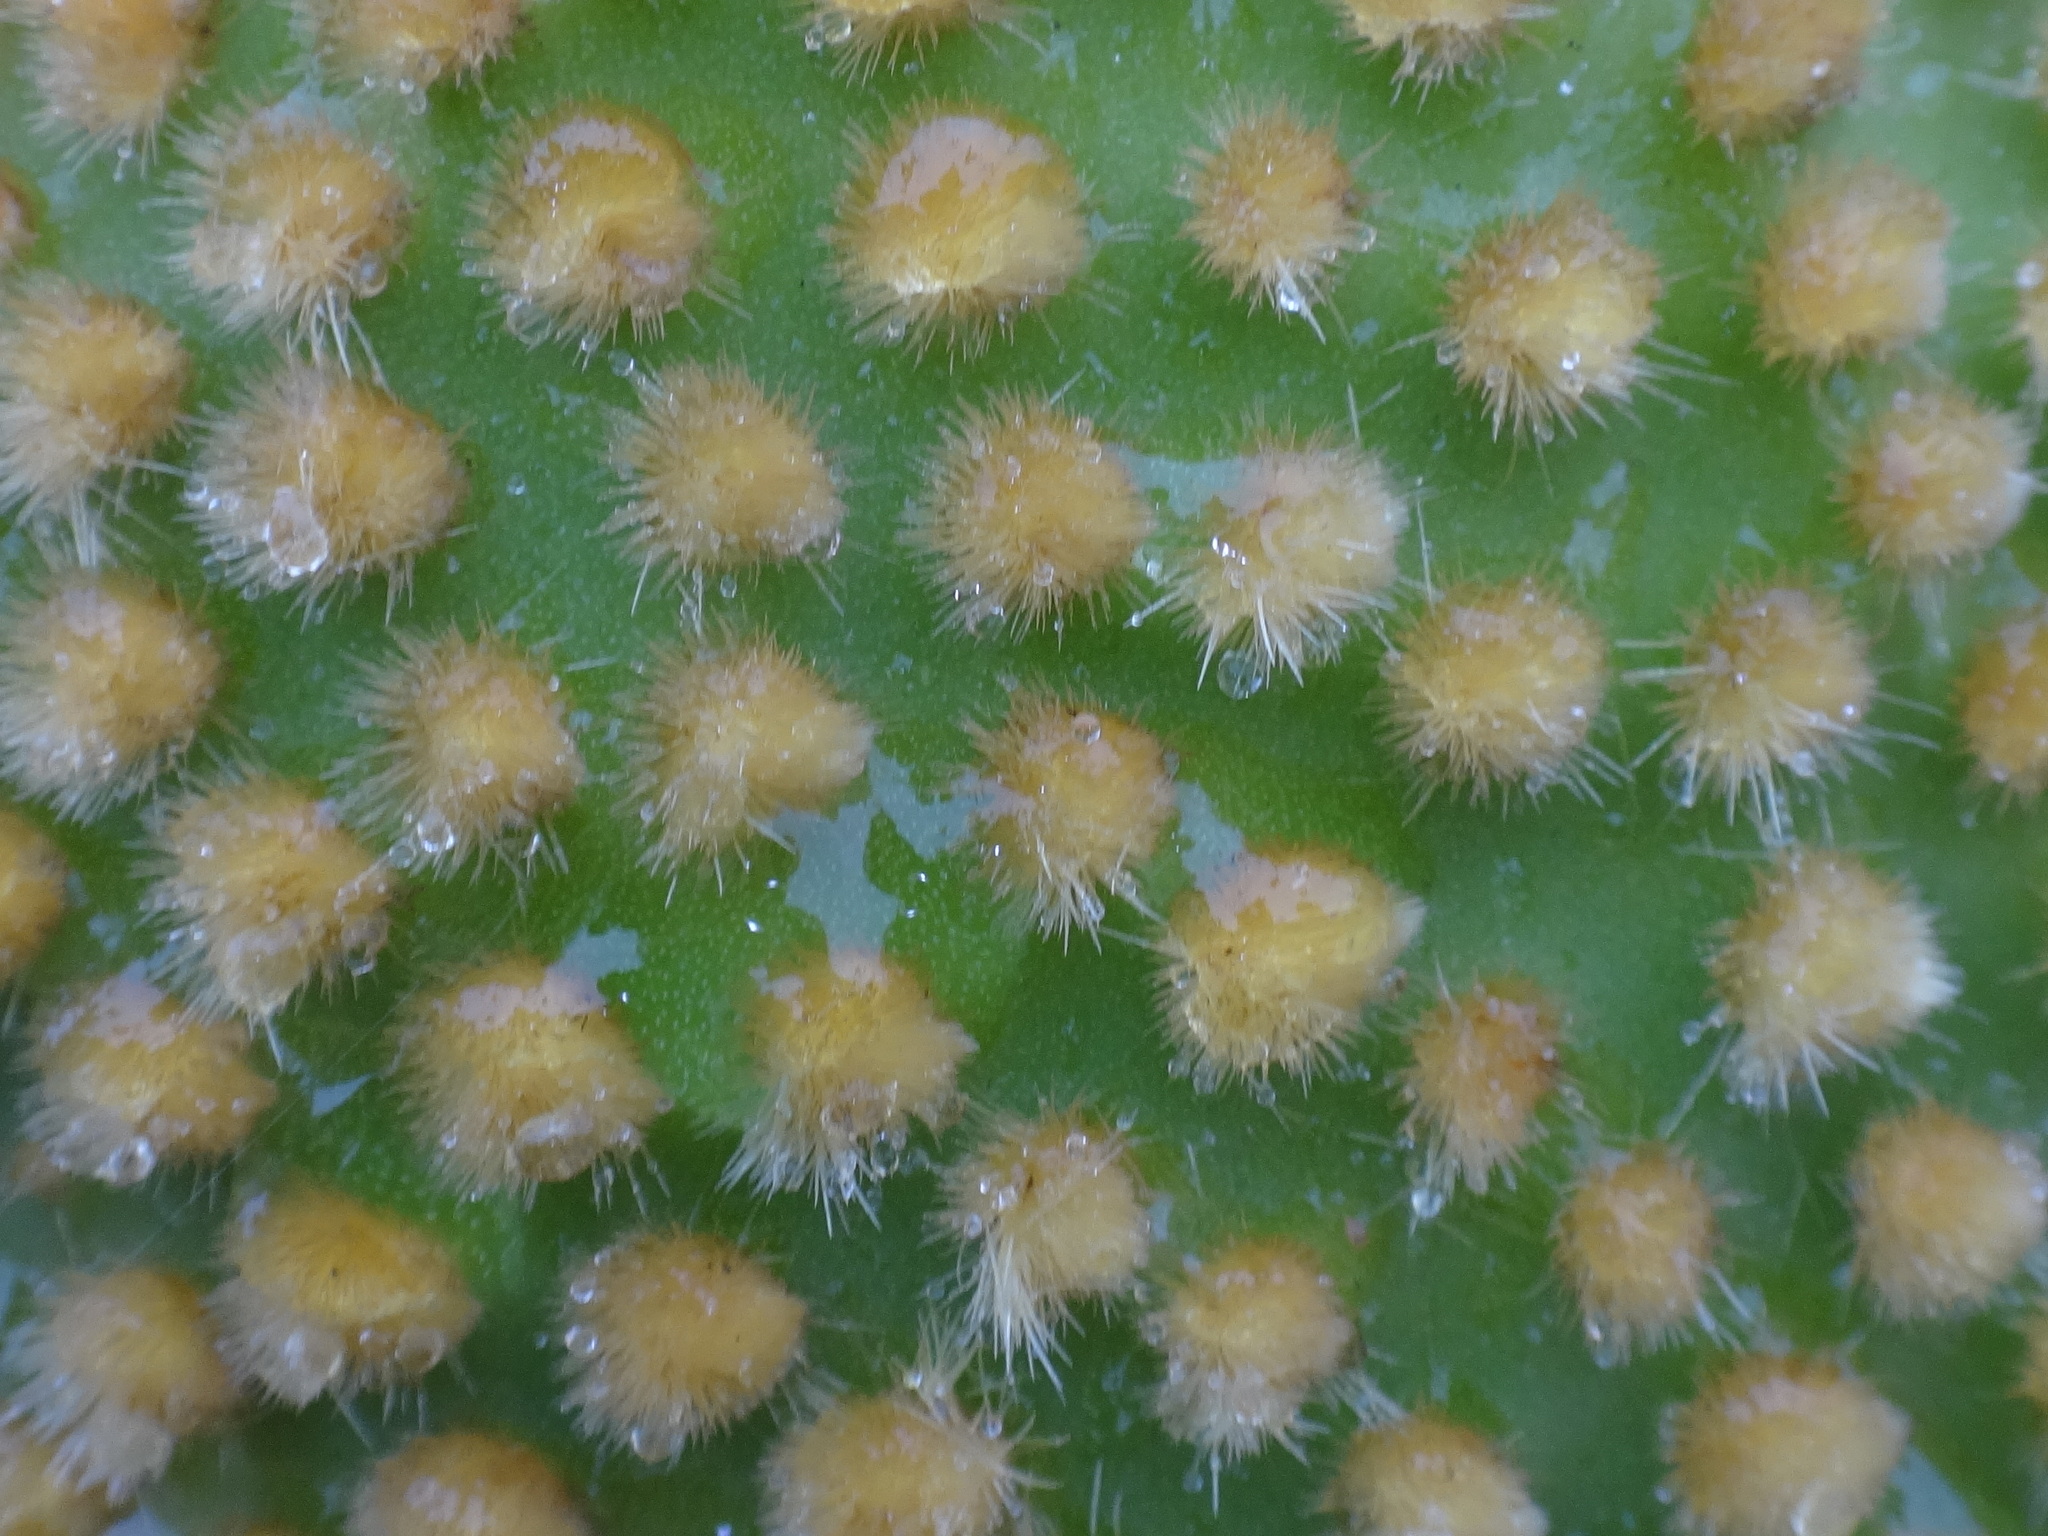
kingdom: Plantae
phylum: Tracheophyta
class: Magnoliopsida
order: Caryophyllales
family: Cactaceae
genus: Opuntia
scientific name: Opuntia microdasys
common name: Angel's-wings
